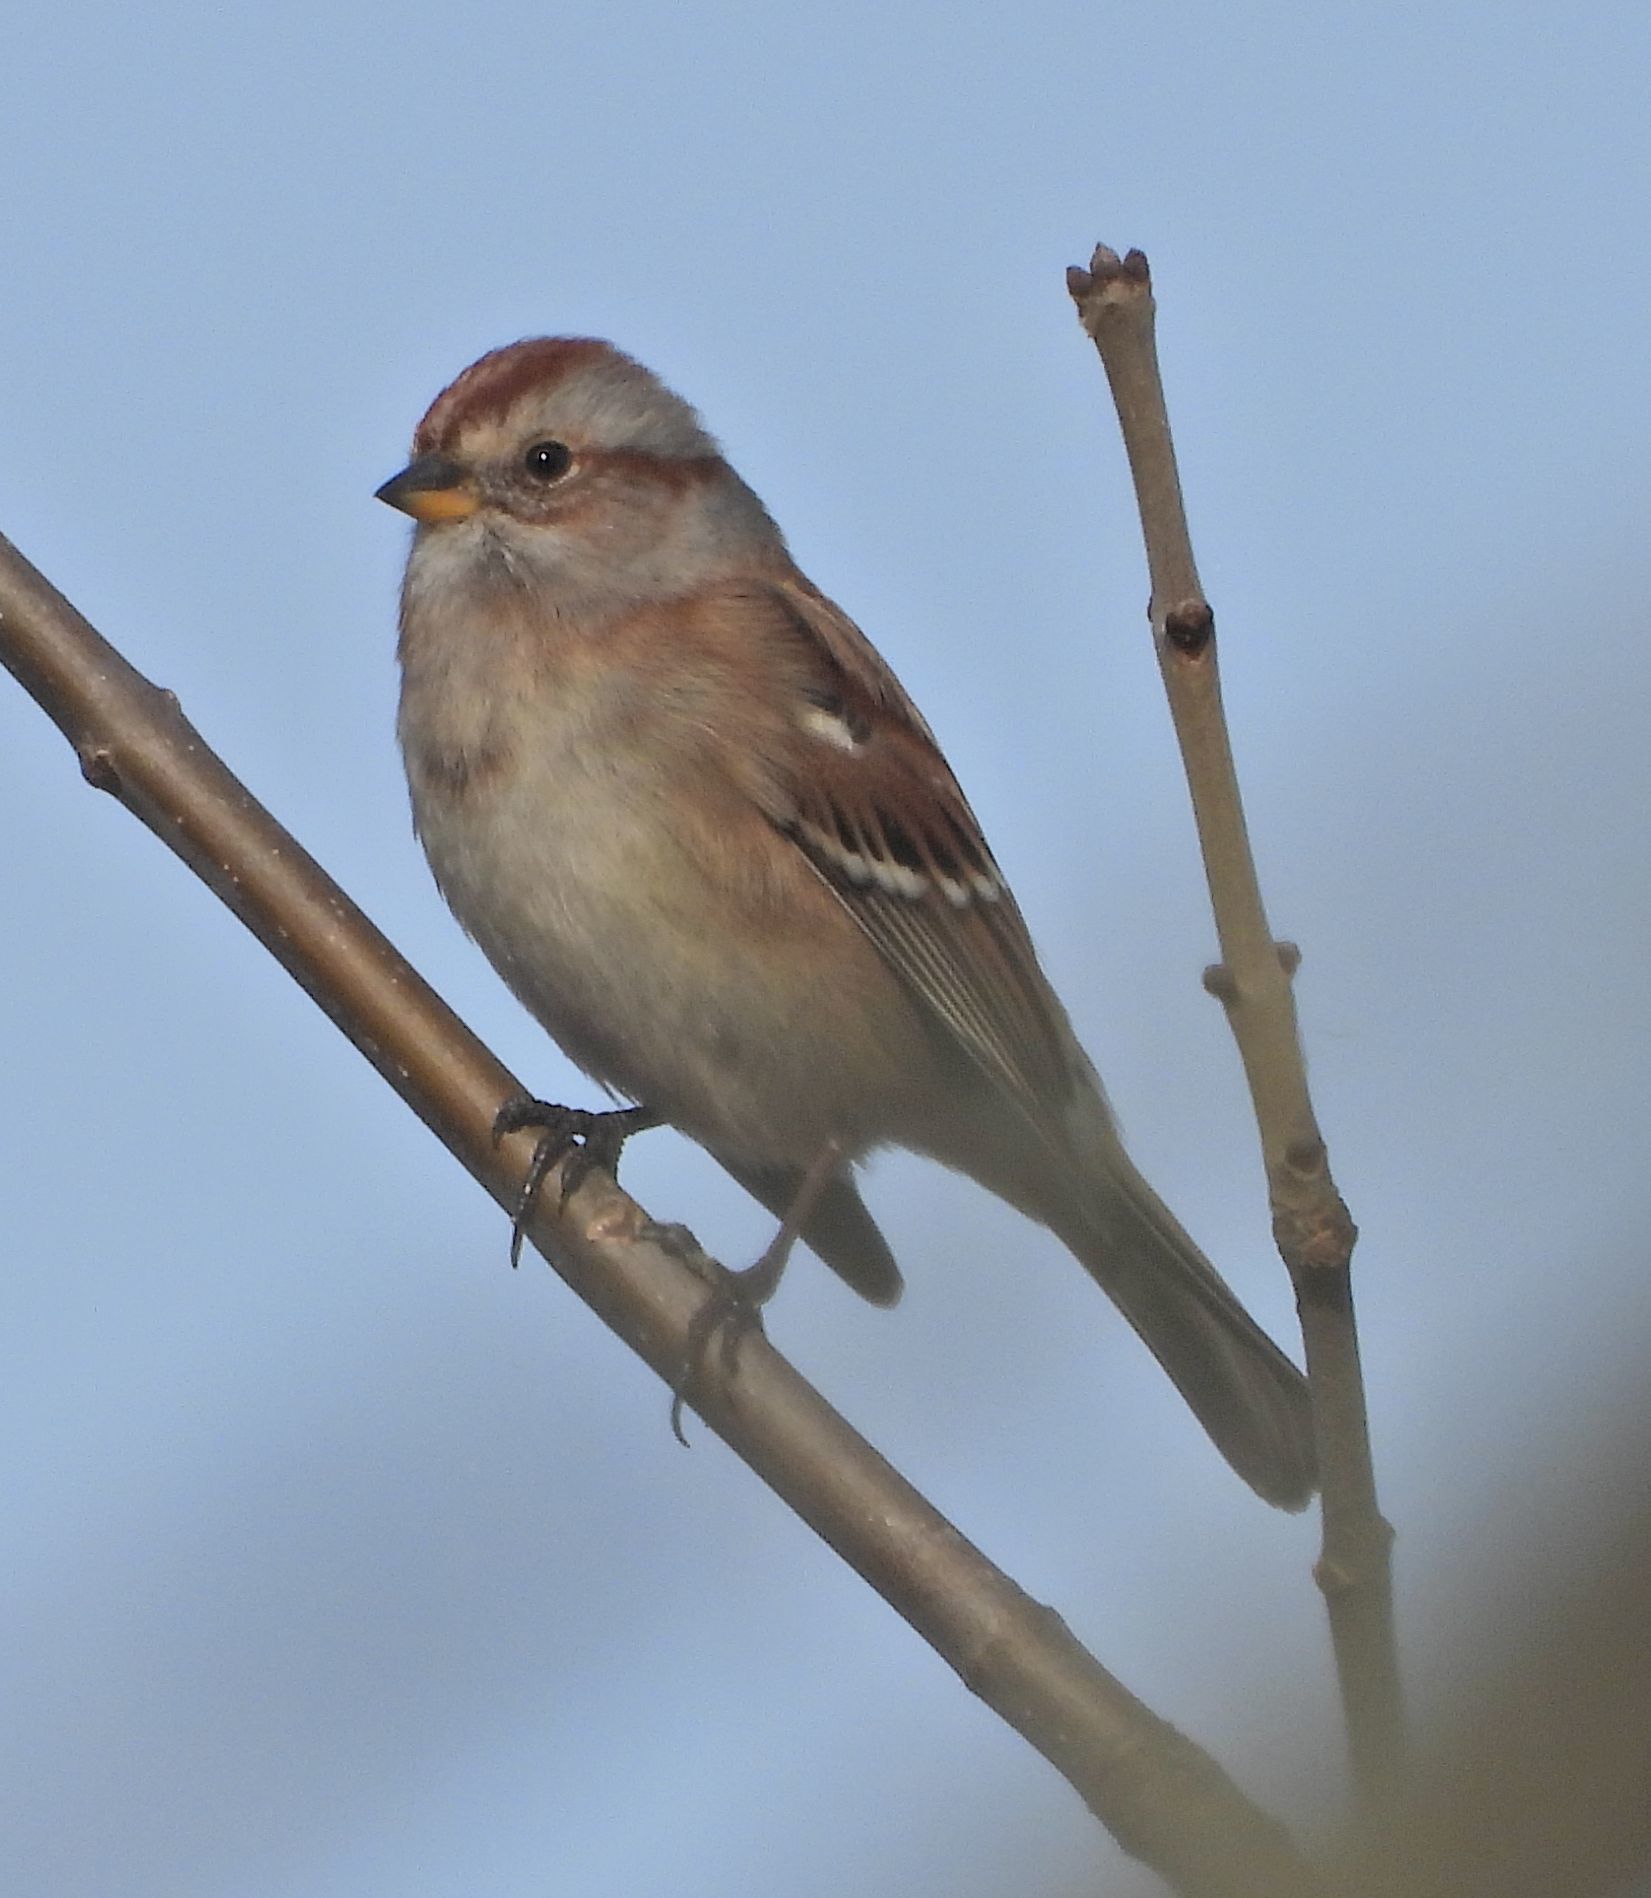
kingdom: Animalia
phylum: Chordata
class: Aves
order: Passeriformes
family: Passerellidae
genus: Spizelloides
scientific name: Spizelloides arborea
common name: American tree sparrow
